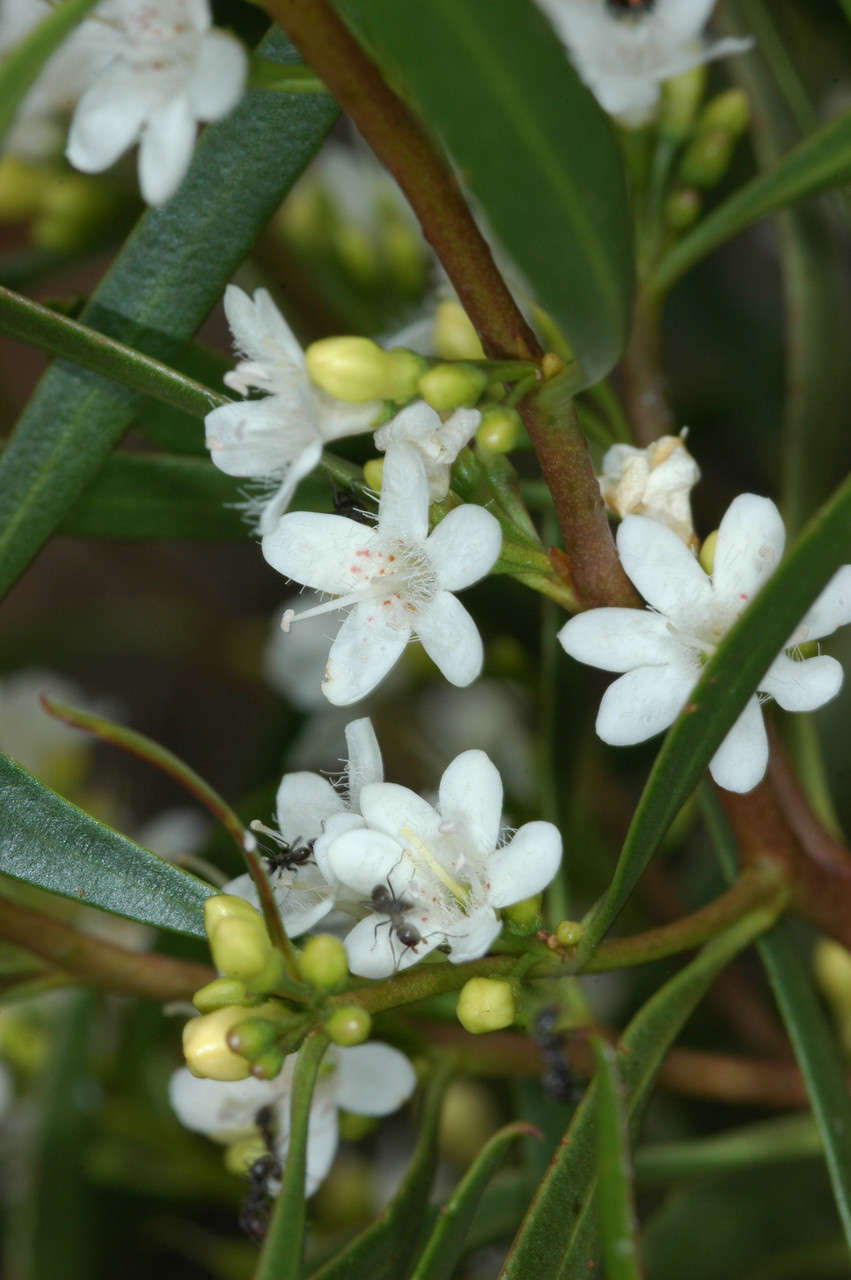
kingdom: Plantae
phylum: Tracheophyta
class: Magnoliopsida
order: Lamiales
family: Scrophulariaceae
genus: Myoporum
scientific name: Myoporum platycarpum
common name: Sugartree
